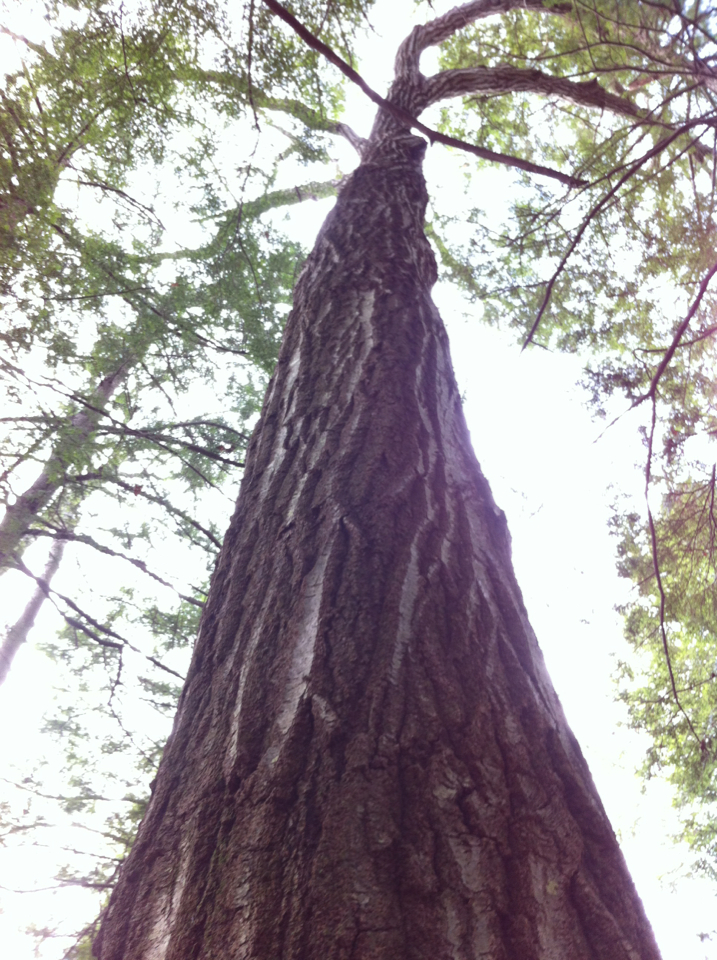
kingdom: Plantae
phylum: Tracheophyta
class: Magnoliopsida
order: Fagales
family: Fagaceae
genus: Quercus
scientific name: Quercus rubra
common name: Red oak
